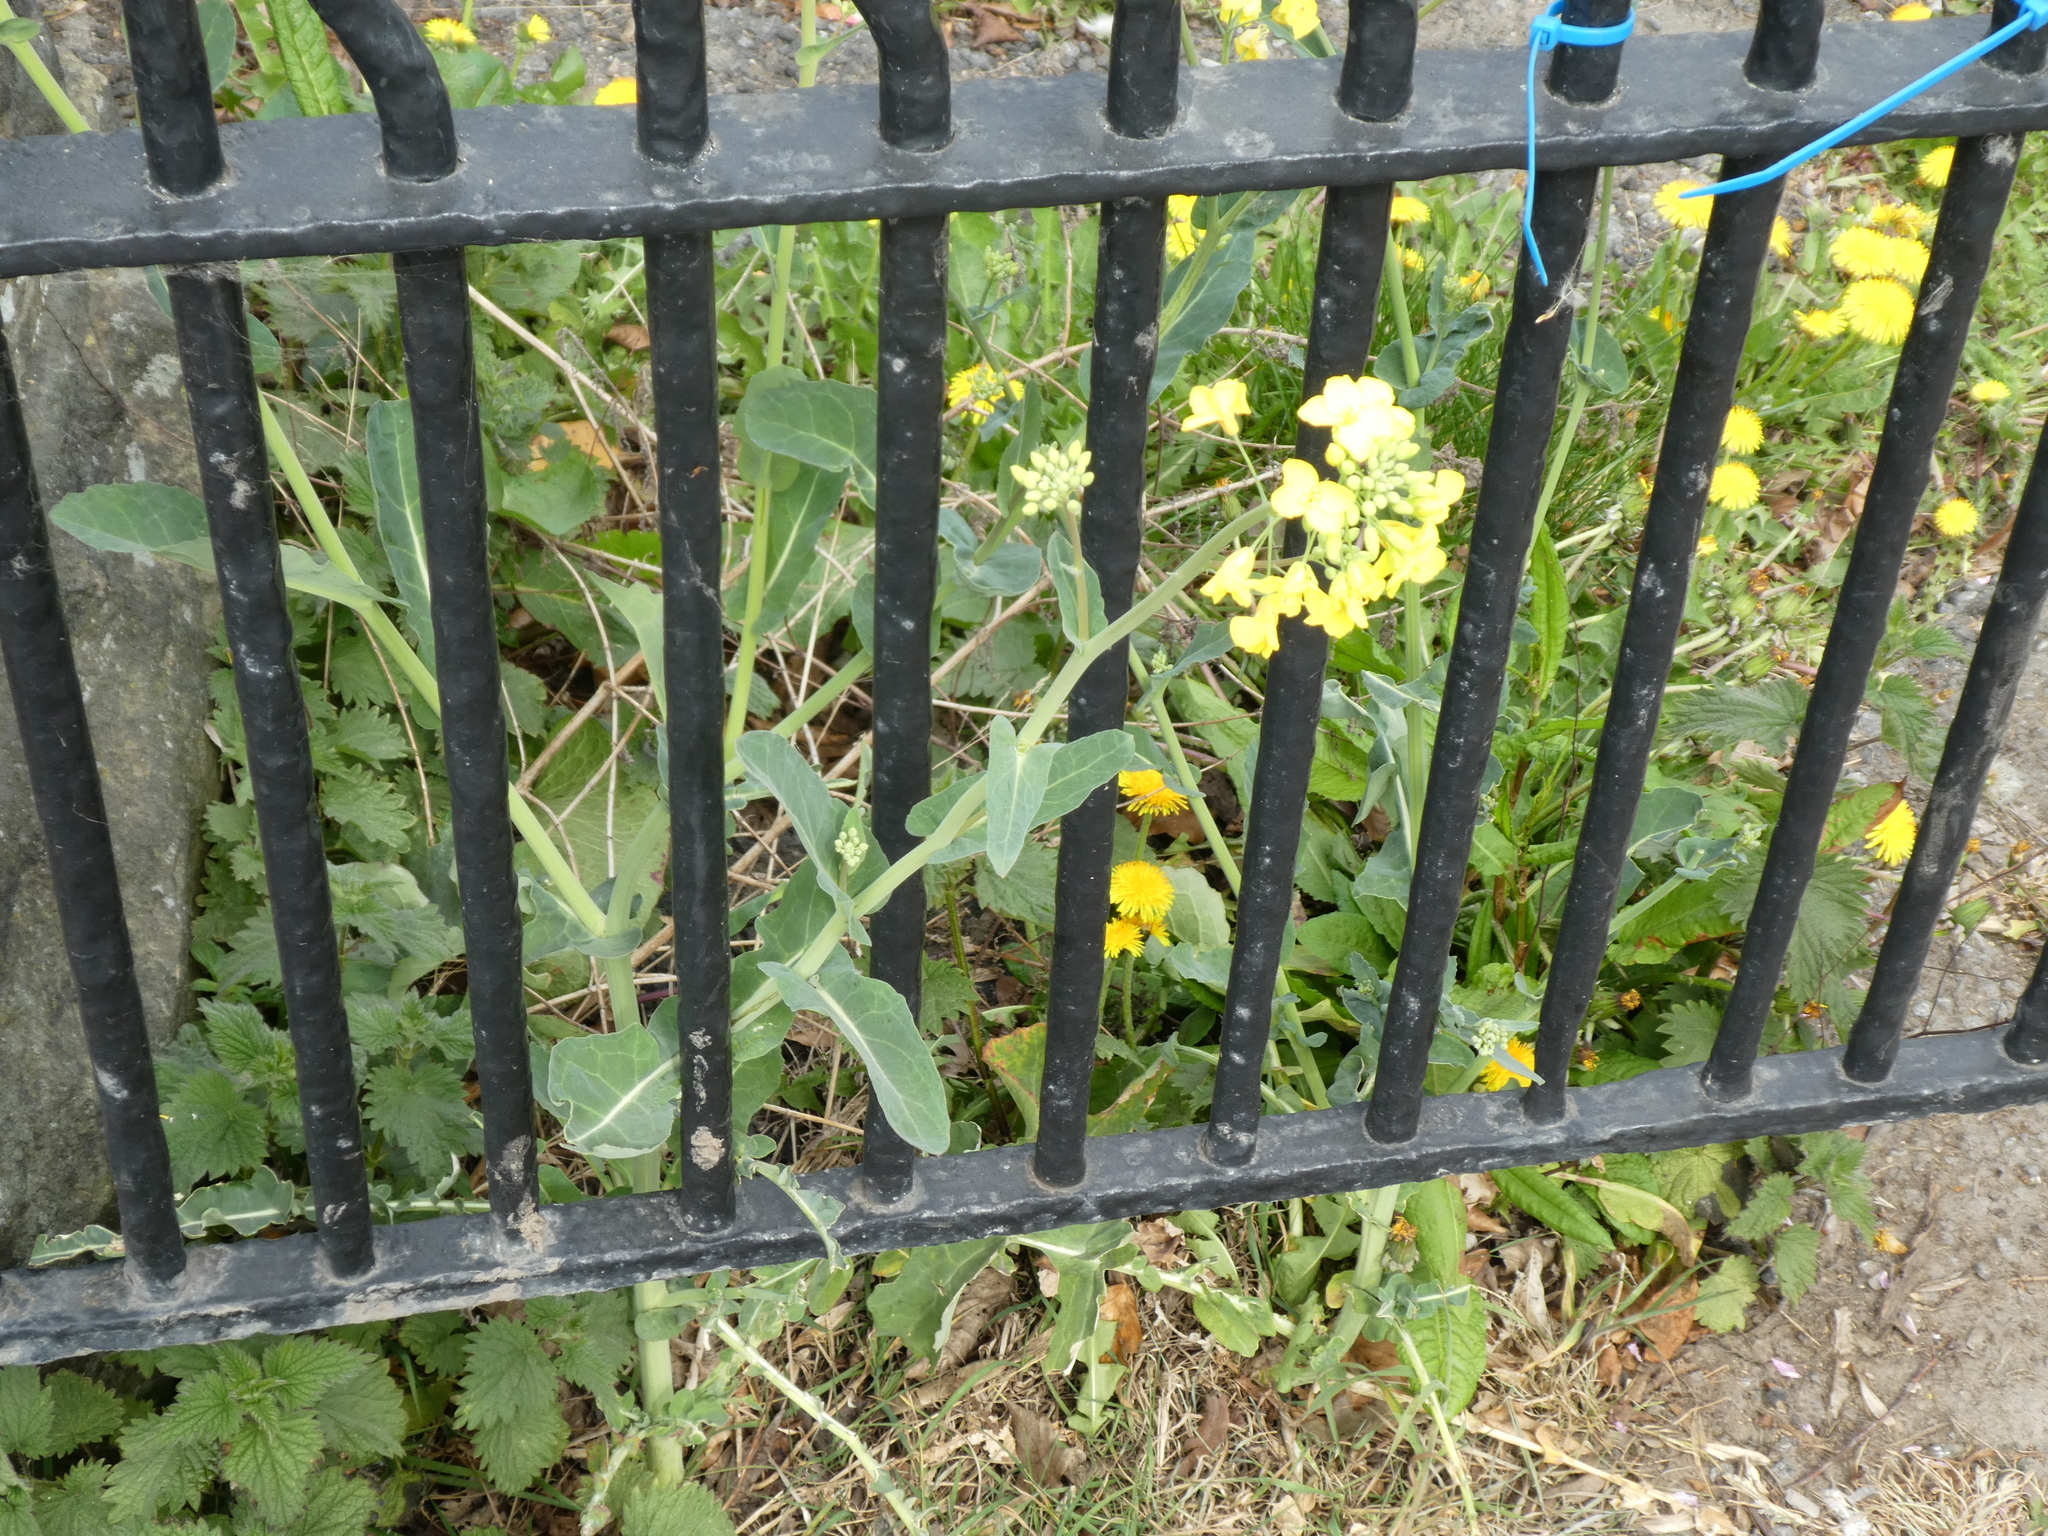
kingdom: Plantae
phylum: Tracheophyta
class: Magnoliopsida
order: Brassicales
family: Brassicaceae
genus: Brassica
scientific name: Brassica napus
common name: Rape
